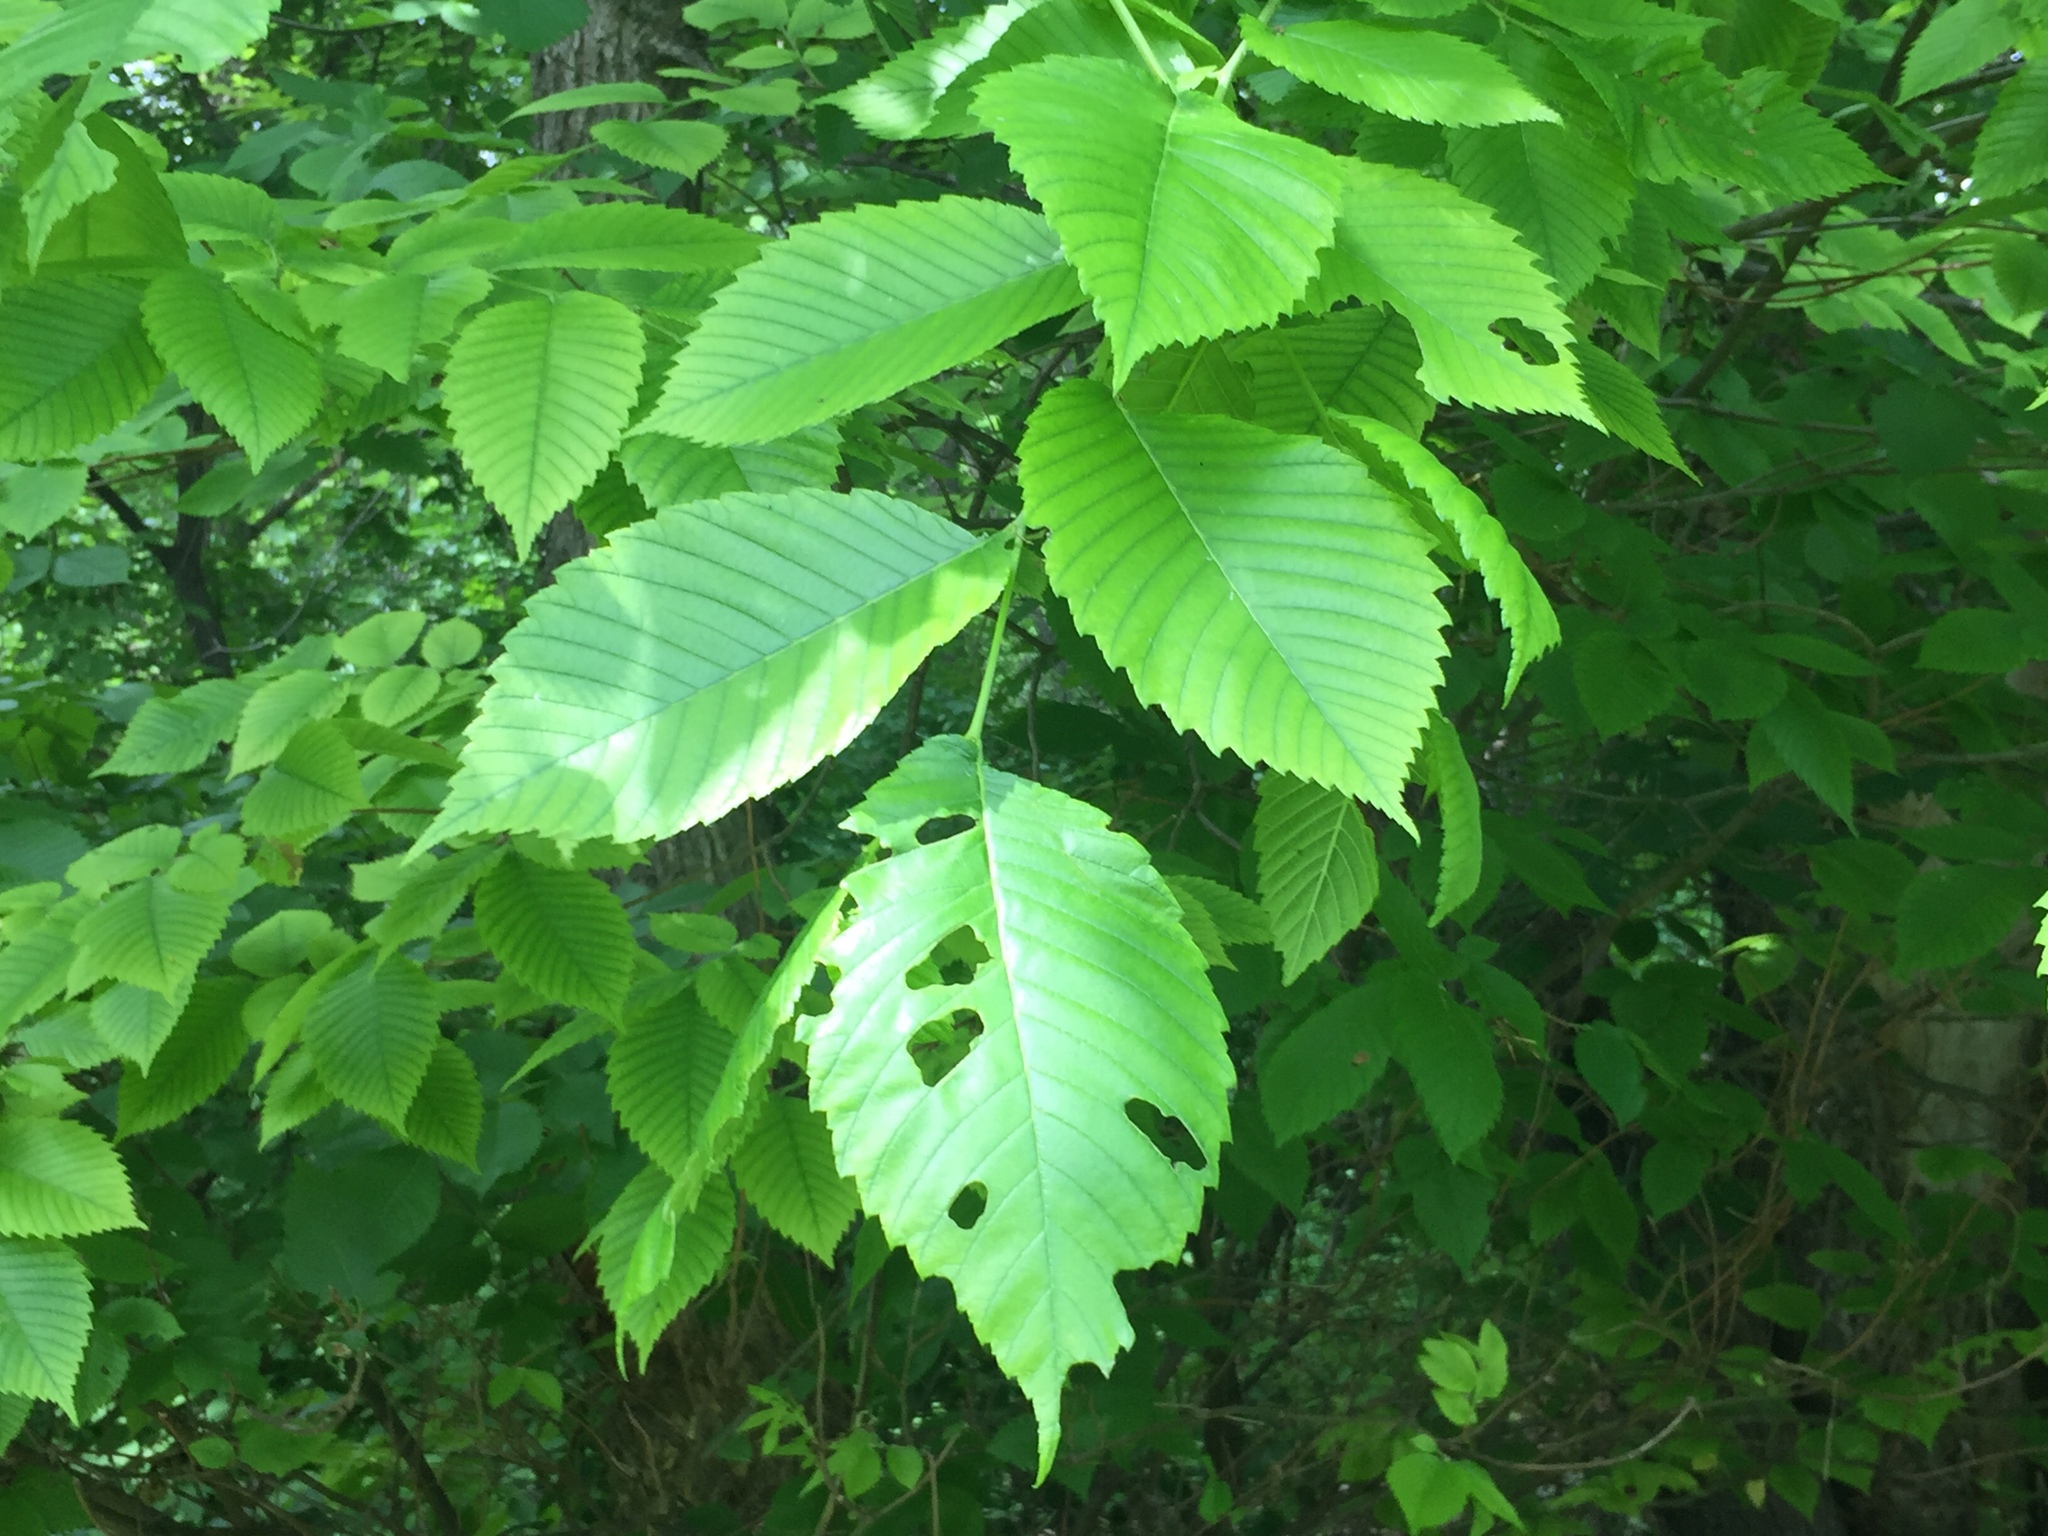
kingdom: Plantae
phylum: Tracheophyta
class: Magnoliopsida
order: Rosales
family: Ulmaceae
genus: Ulmus
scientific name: Ulmus americana
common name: American elm
